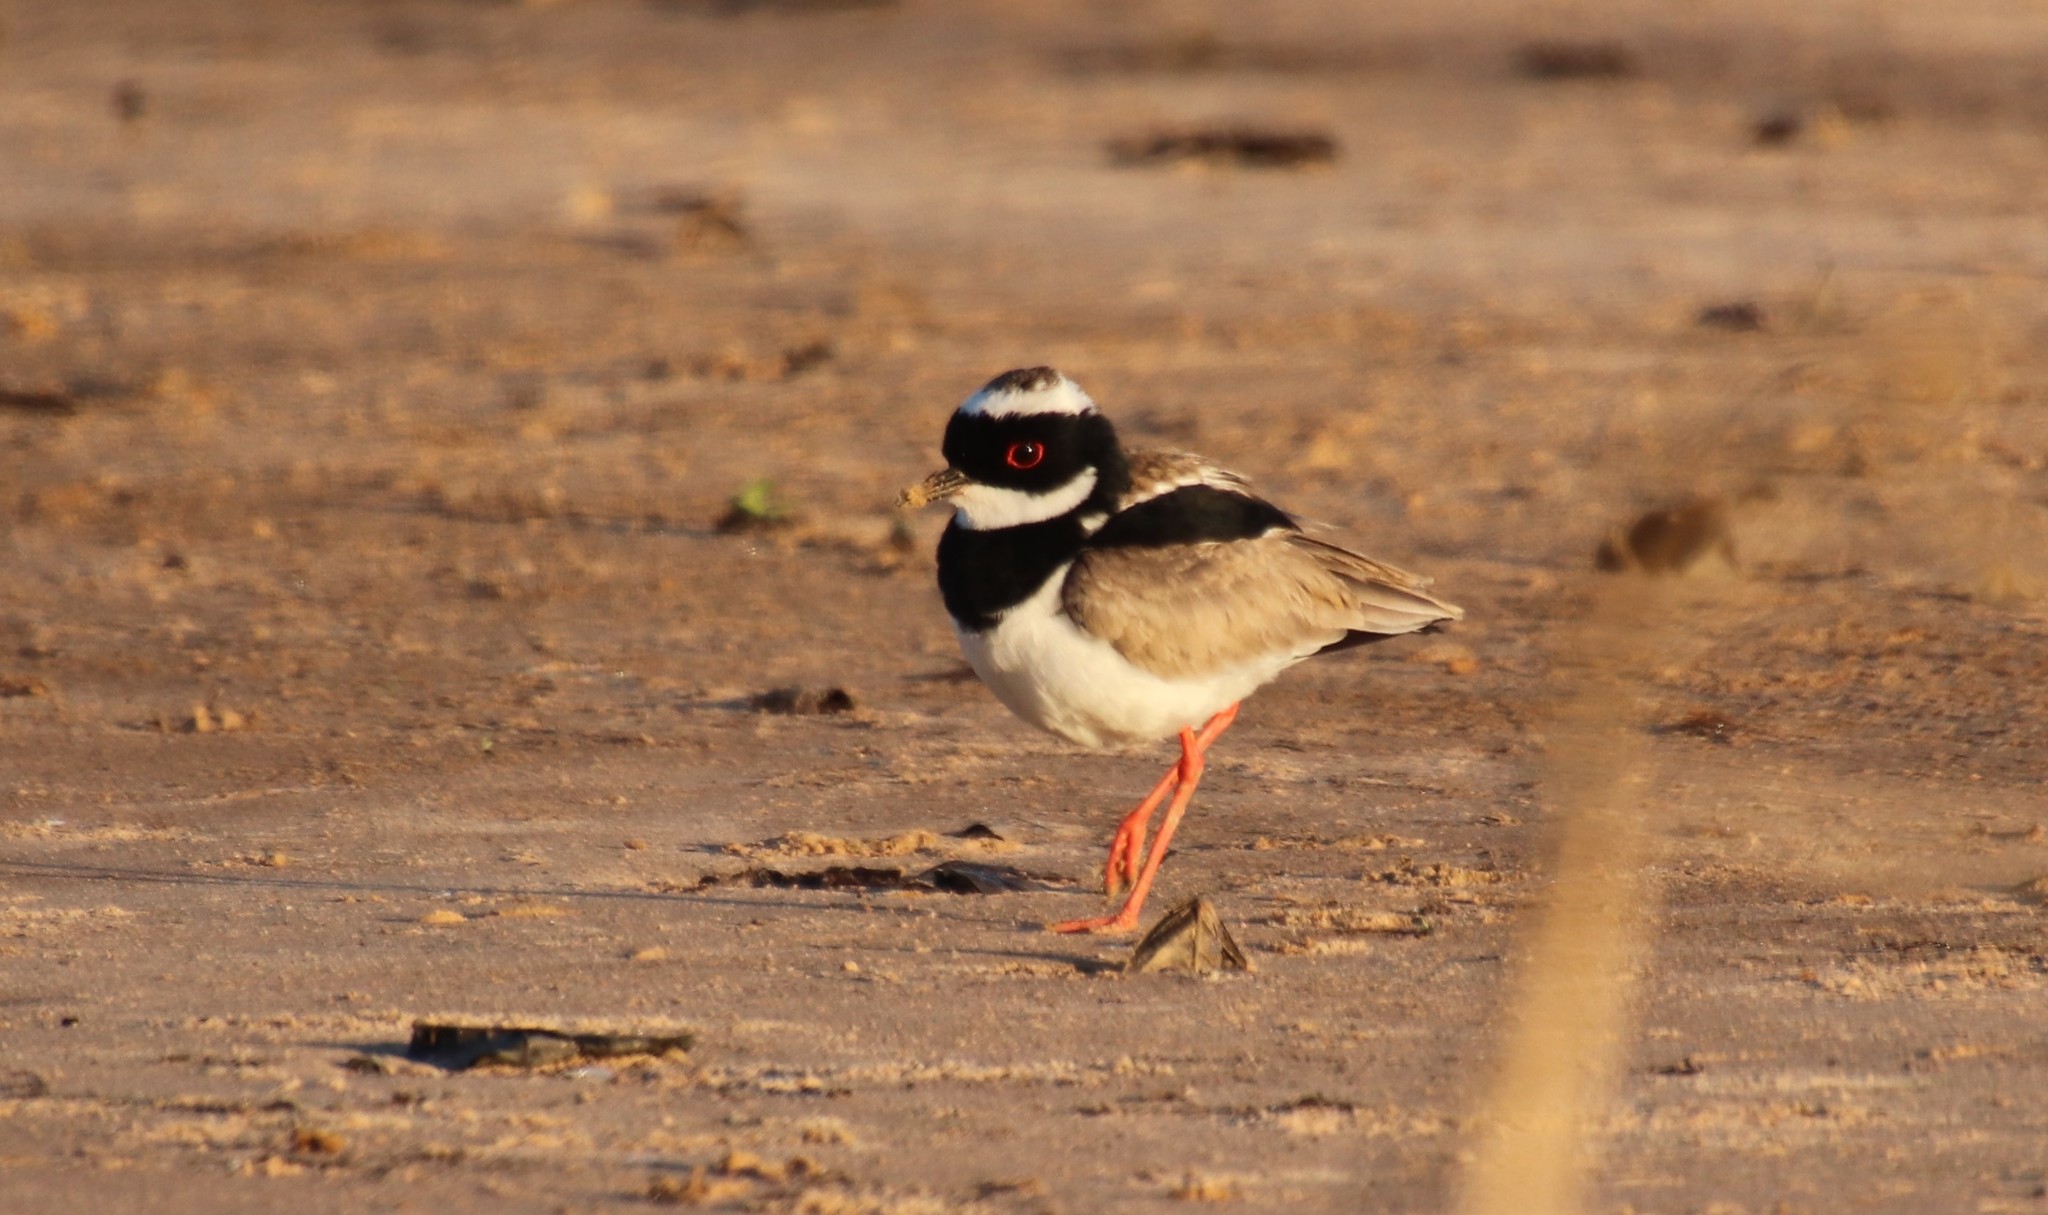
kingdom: Animalia
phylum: Chordata
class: Aves
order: Charadriiformes
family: Charadriidae
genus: Hoploxypterus
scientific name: Hoploxypterus cayanus
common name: Pied plover
